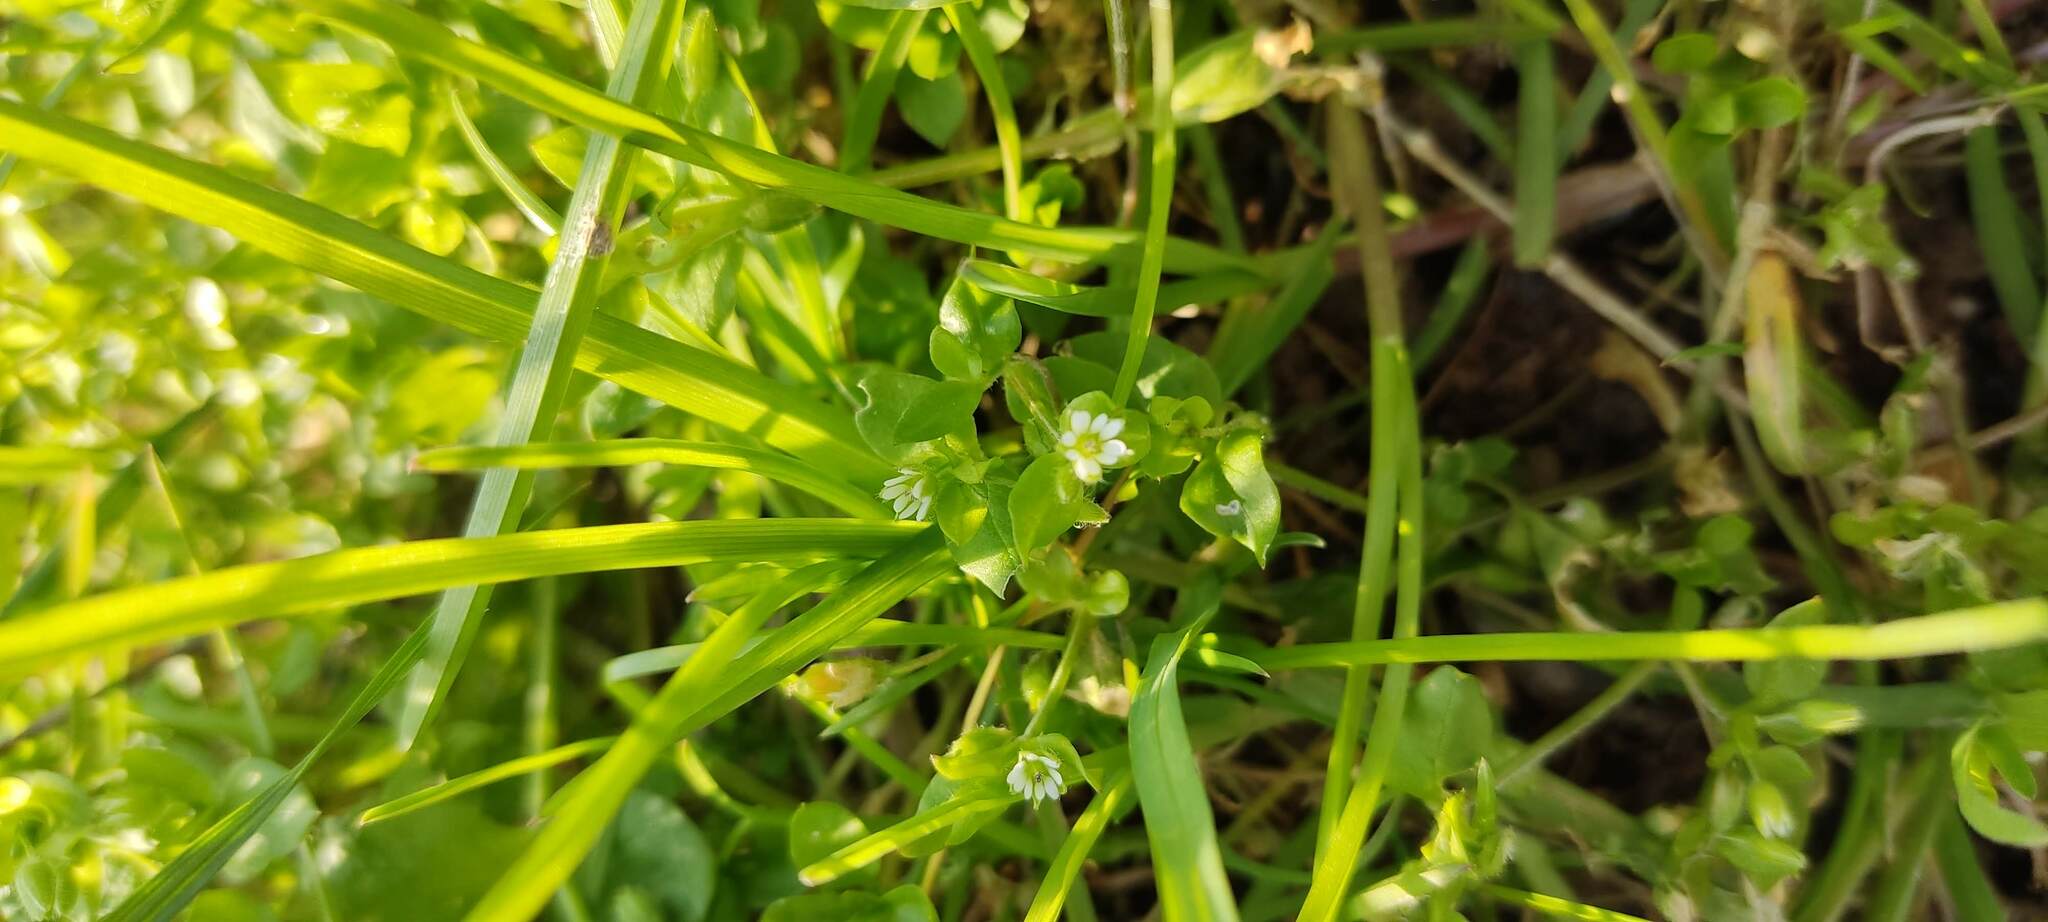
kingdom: Plantae
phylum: Tracheophyta
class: Magnoliopsida
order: Caryophyllales
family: Caryophyllaceae
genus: Stellaria
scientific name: Stellaria media
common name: Common chickweed
